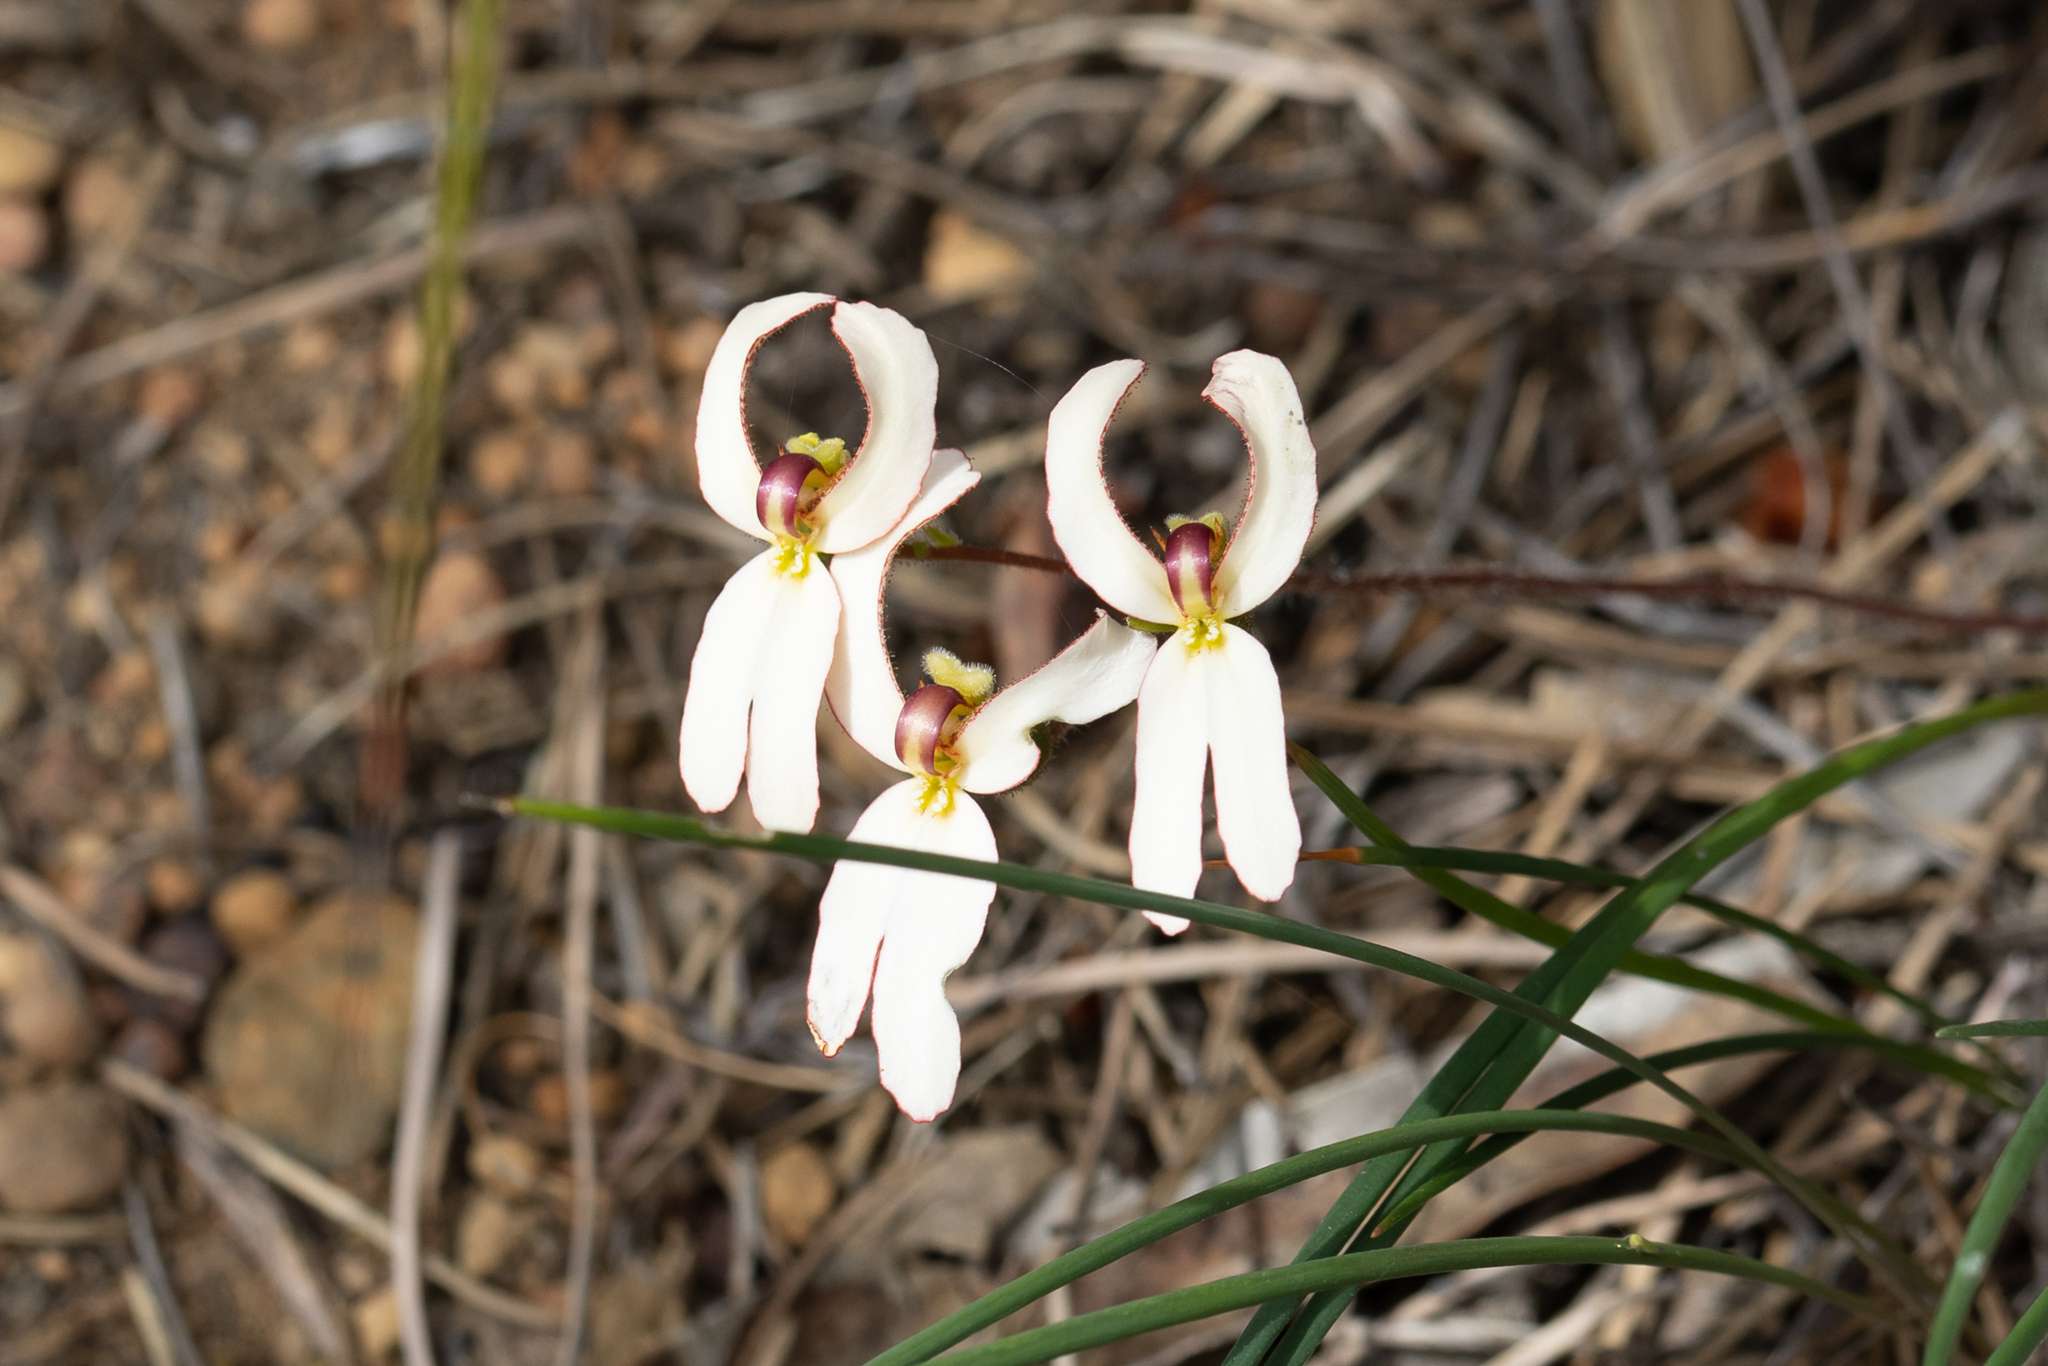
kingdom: Plantae
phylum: Tracheophyta
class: Magnoliopsida
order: Asterales
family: Stylidiaceae
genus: Stylidium
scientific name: Stylidium schoenoides
